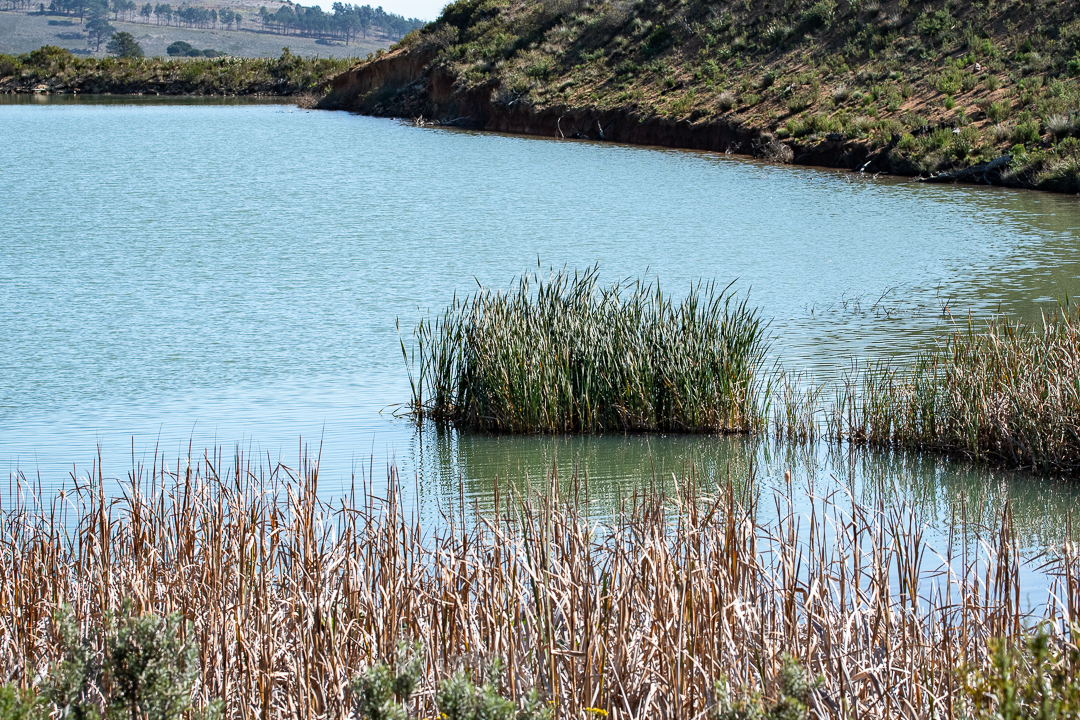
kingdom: Plantae
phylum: Tracheophyta
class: Liliopsida
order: Poales
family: Typhaceae
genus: Typha
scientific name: Typha capensis
